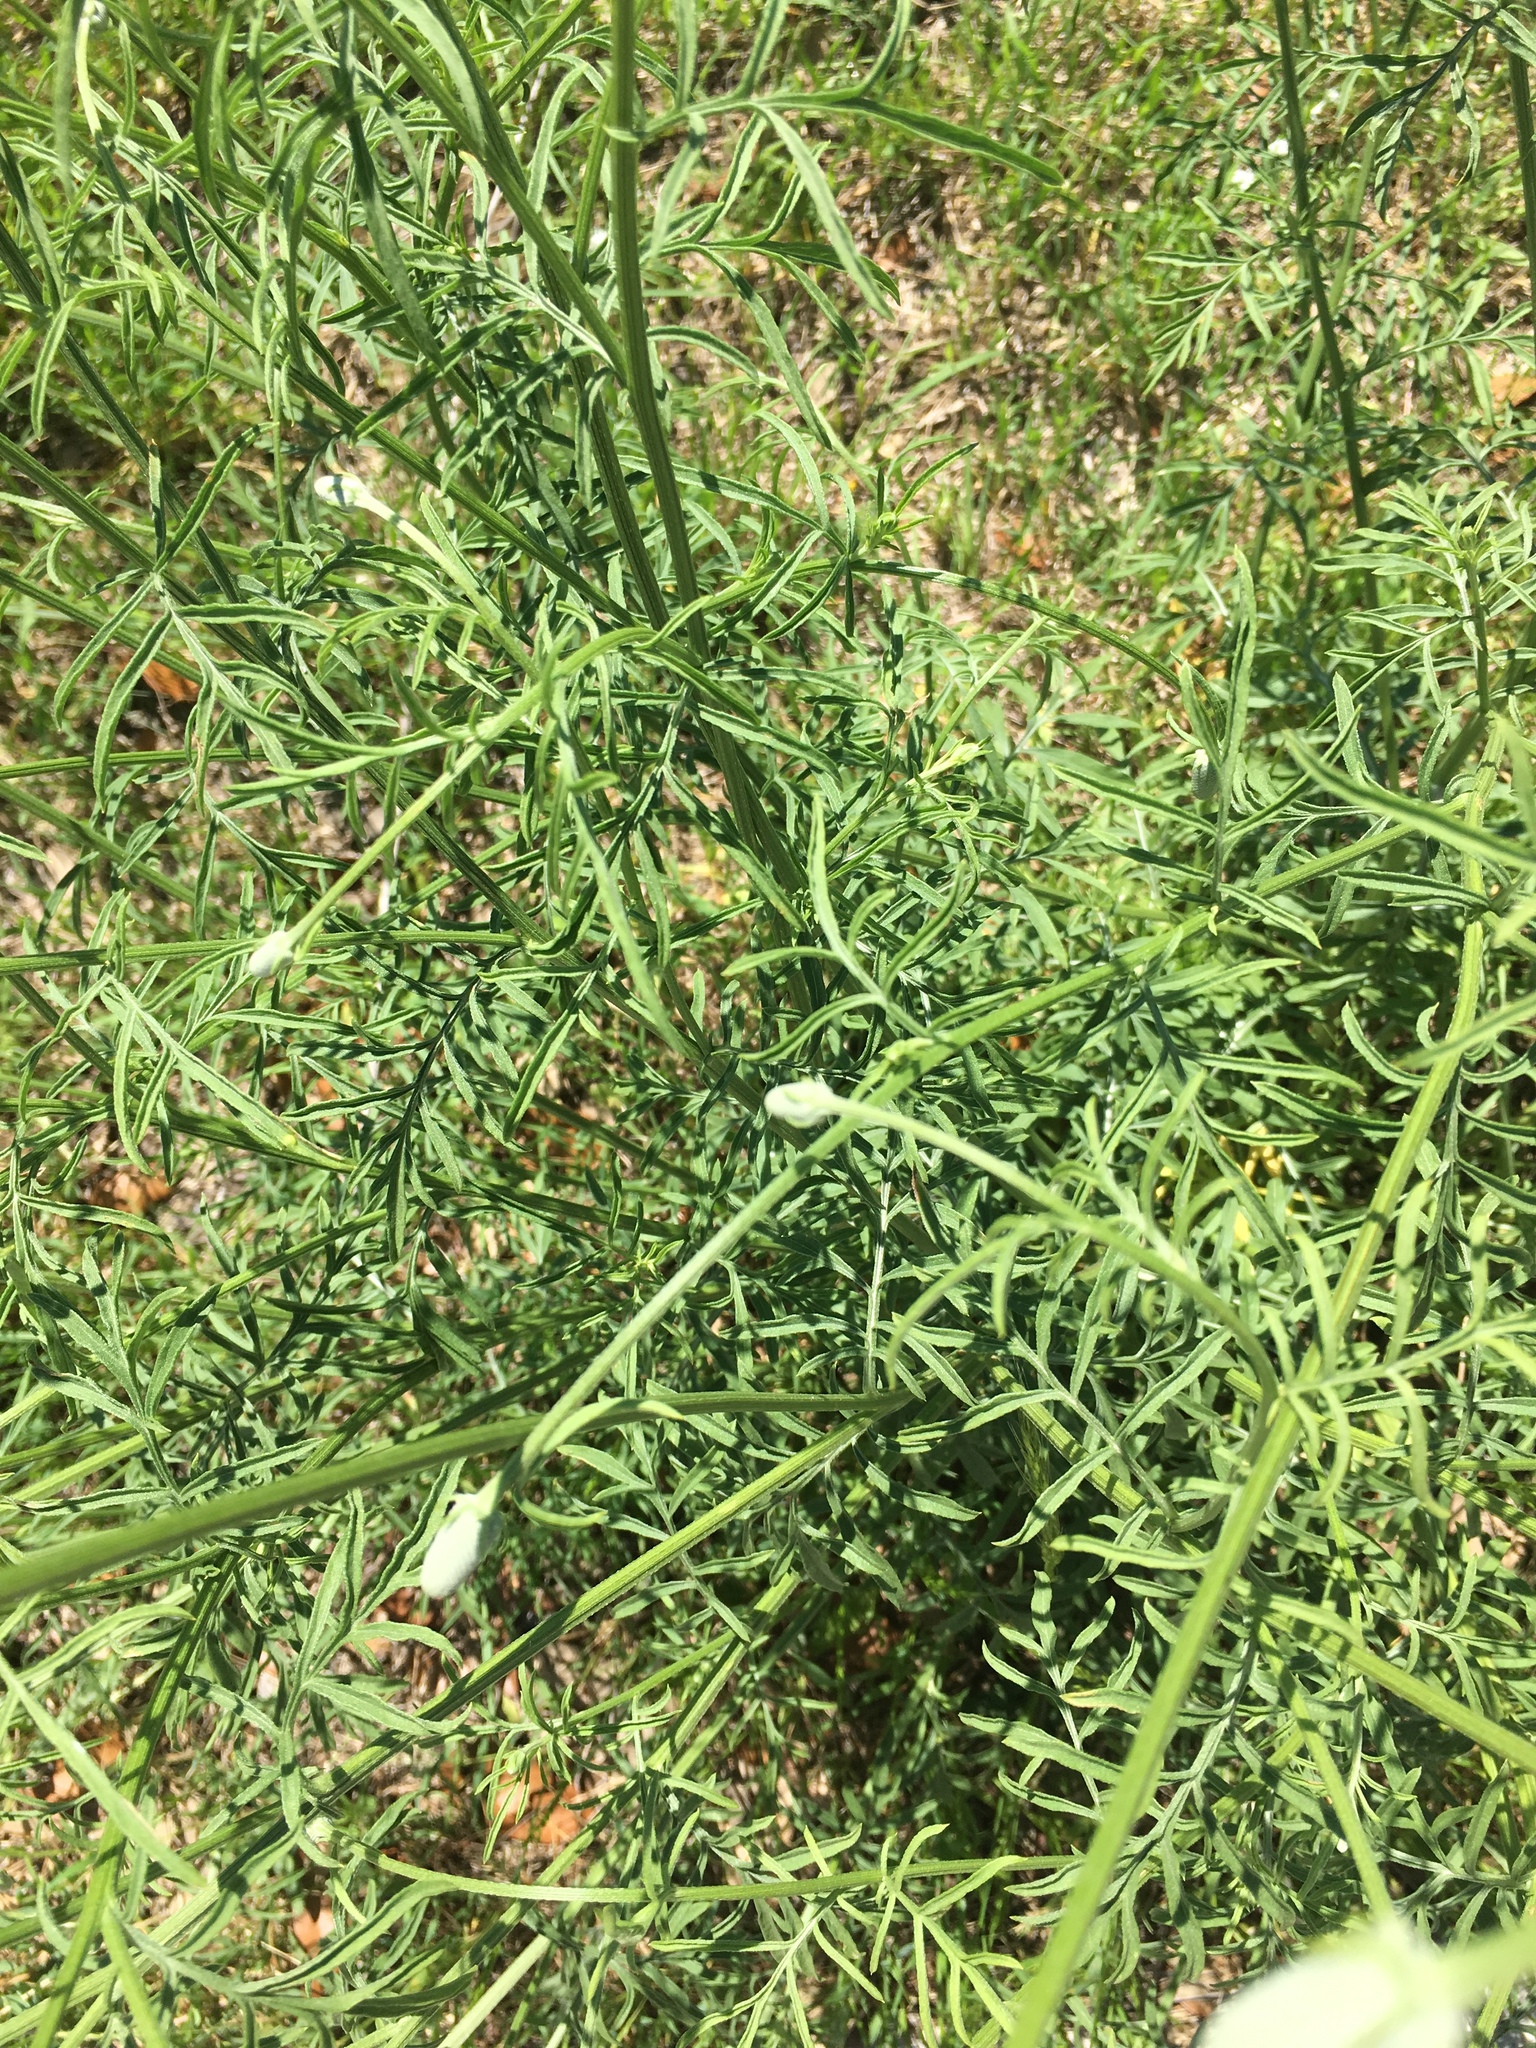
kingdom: Plantae
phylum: Tracheophyta
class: Magnoliopsida
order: Asterales
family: Asteraceae
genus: Ratibida
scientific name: Ratibida columnifera
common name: Prairie coneflower
